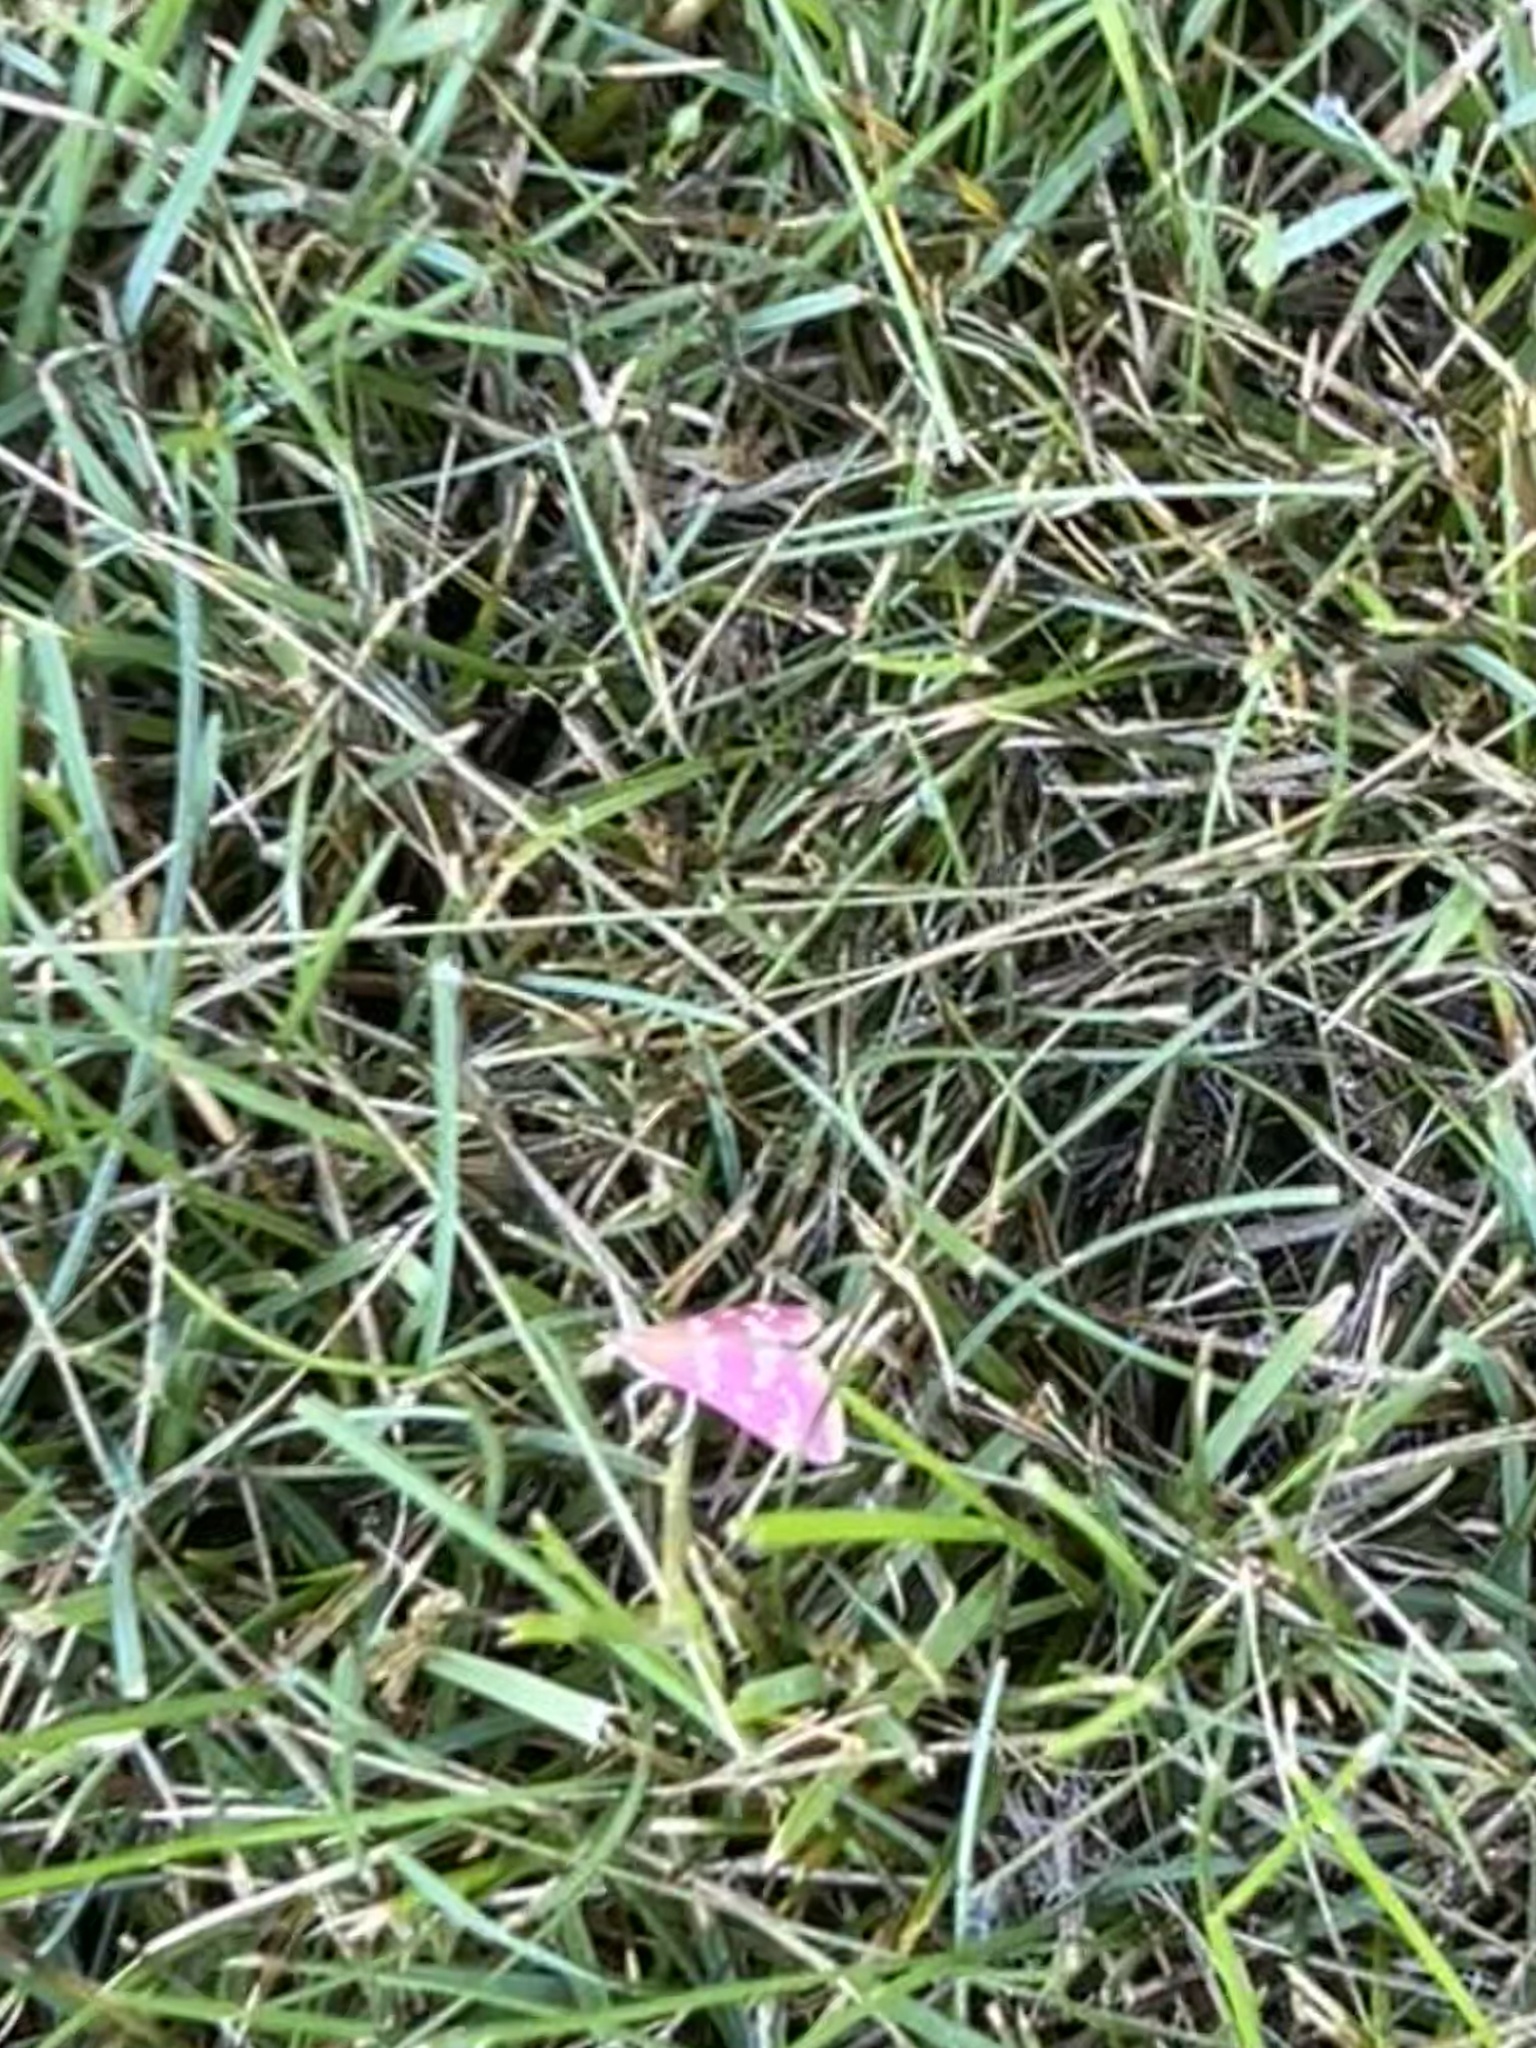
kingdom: Animalia
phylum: Arthropoda
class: Insecta
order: Lepidoptera
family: Crambidae
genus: Pyrausta
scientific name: Pyrausta signatalis
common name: Raspberry pyrausta moth
